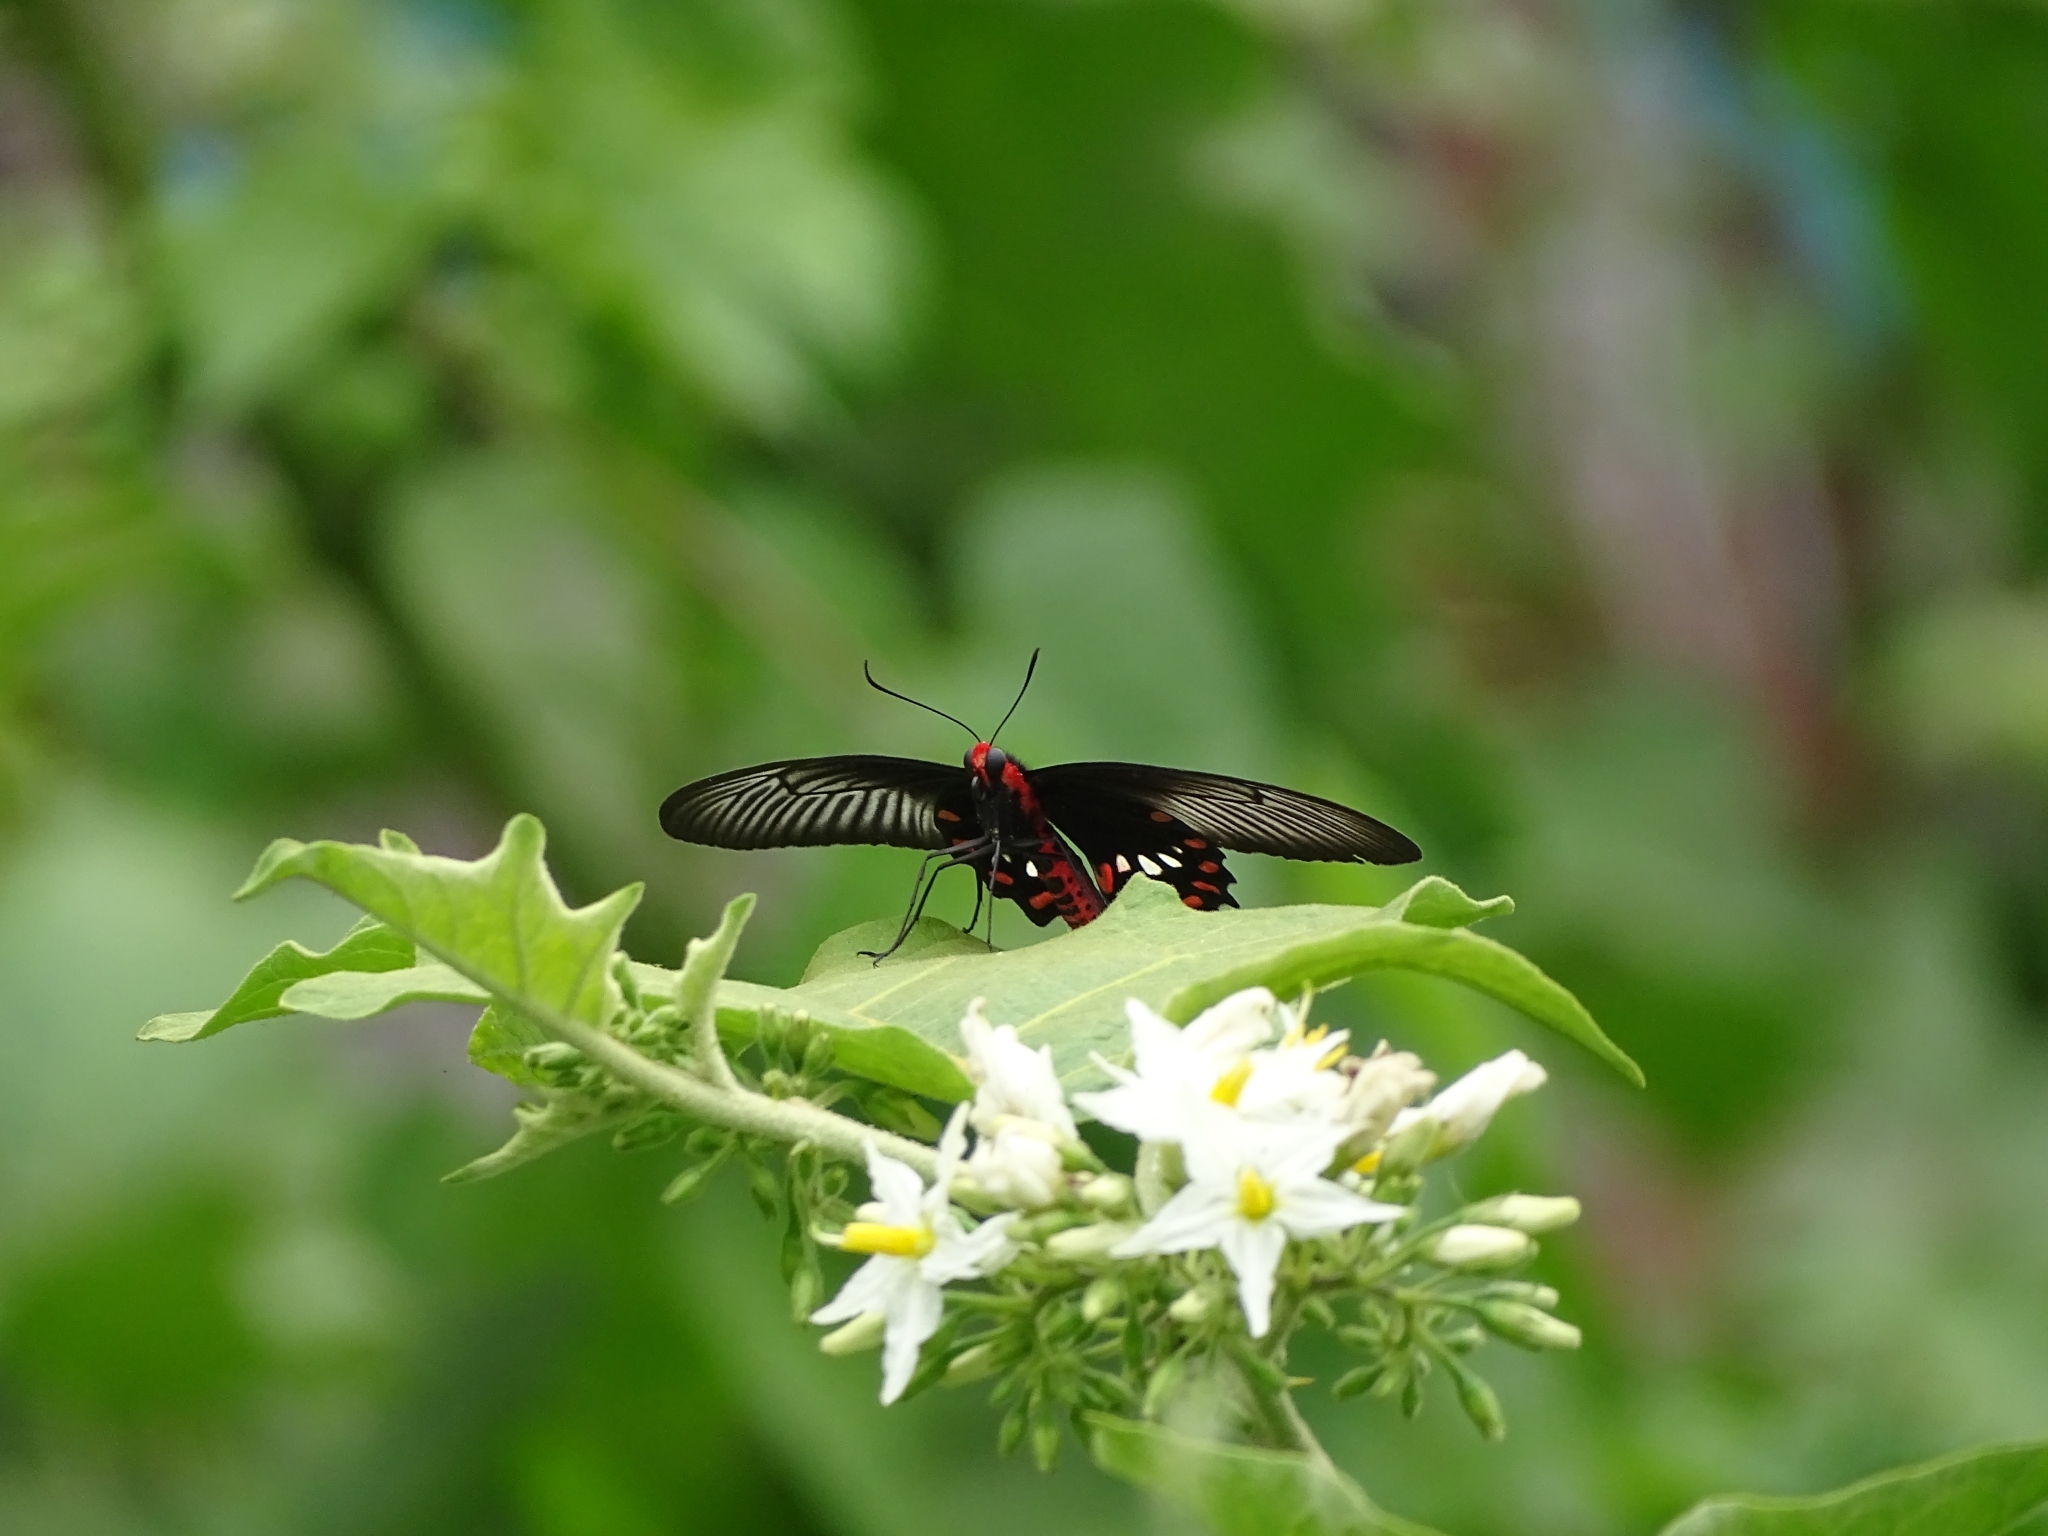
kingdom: Animalia
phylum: Arthropoda
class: Insecta
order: Lepidoptera
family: Papilionidae
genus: Pachliopta
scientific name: Pachliopta aristolochiae
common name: Common rose
